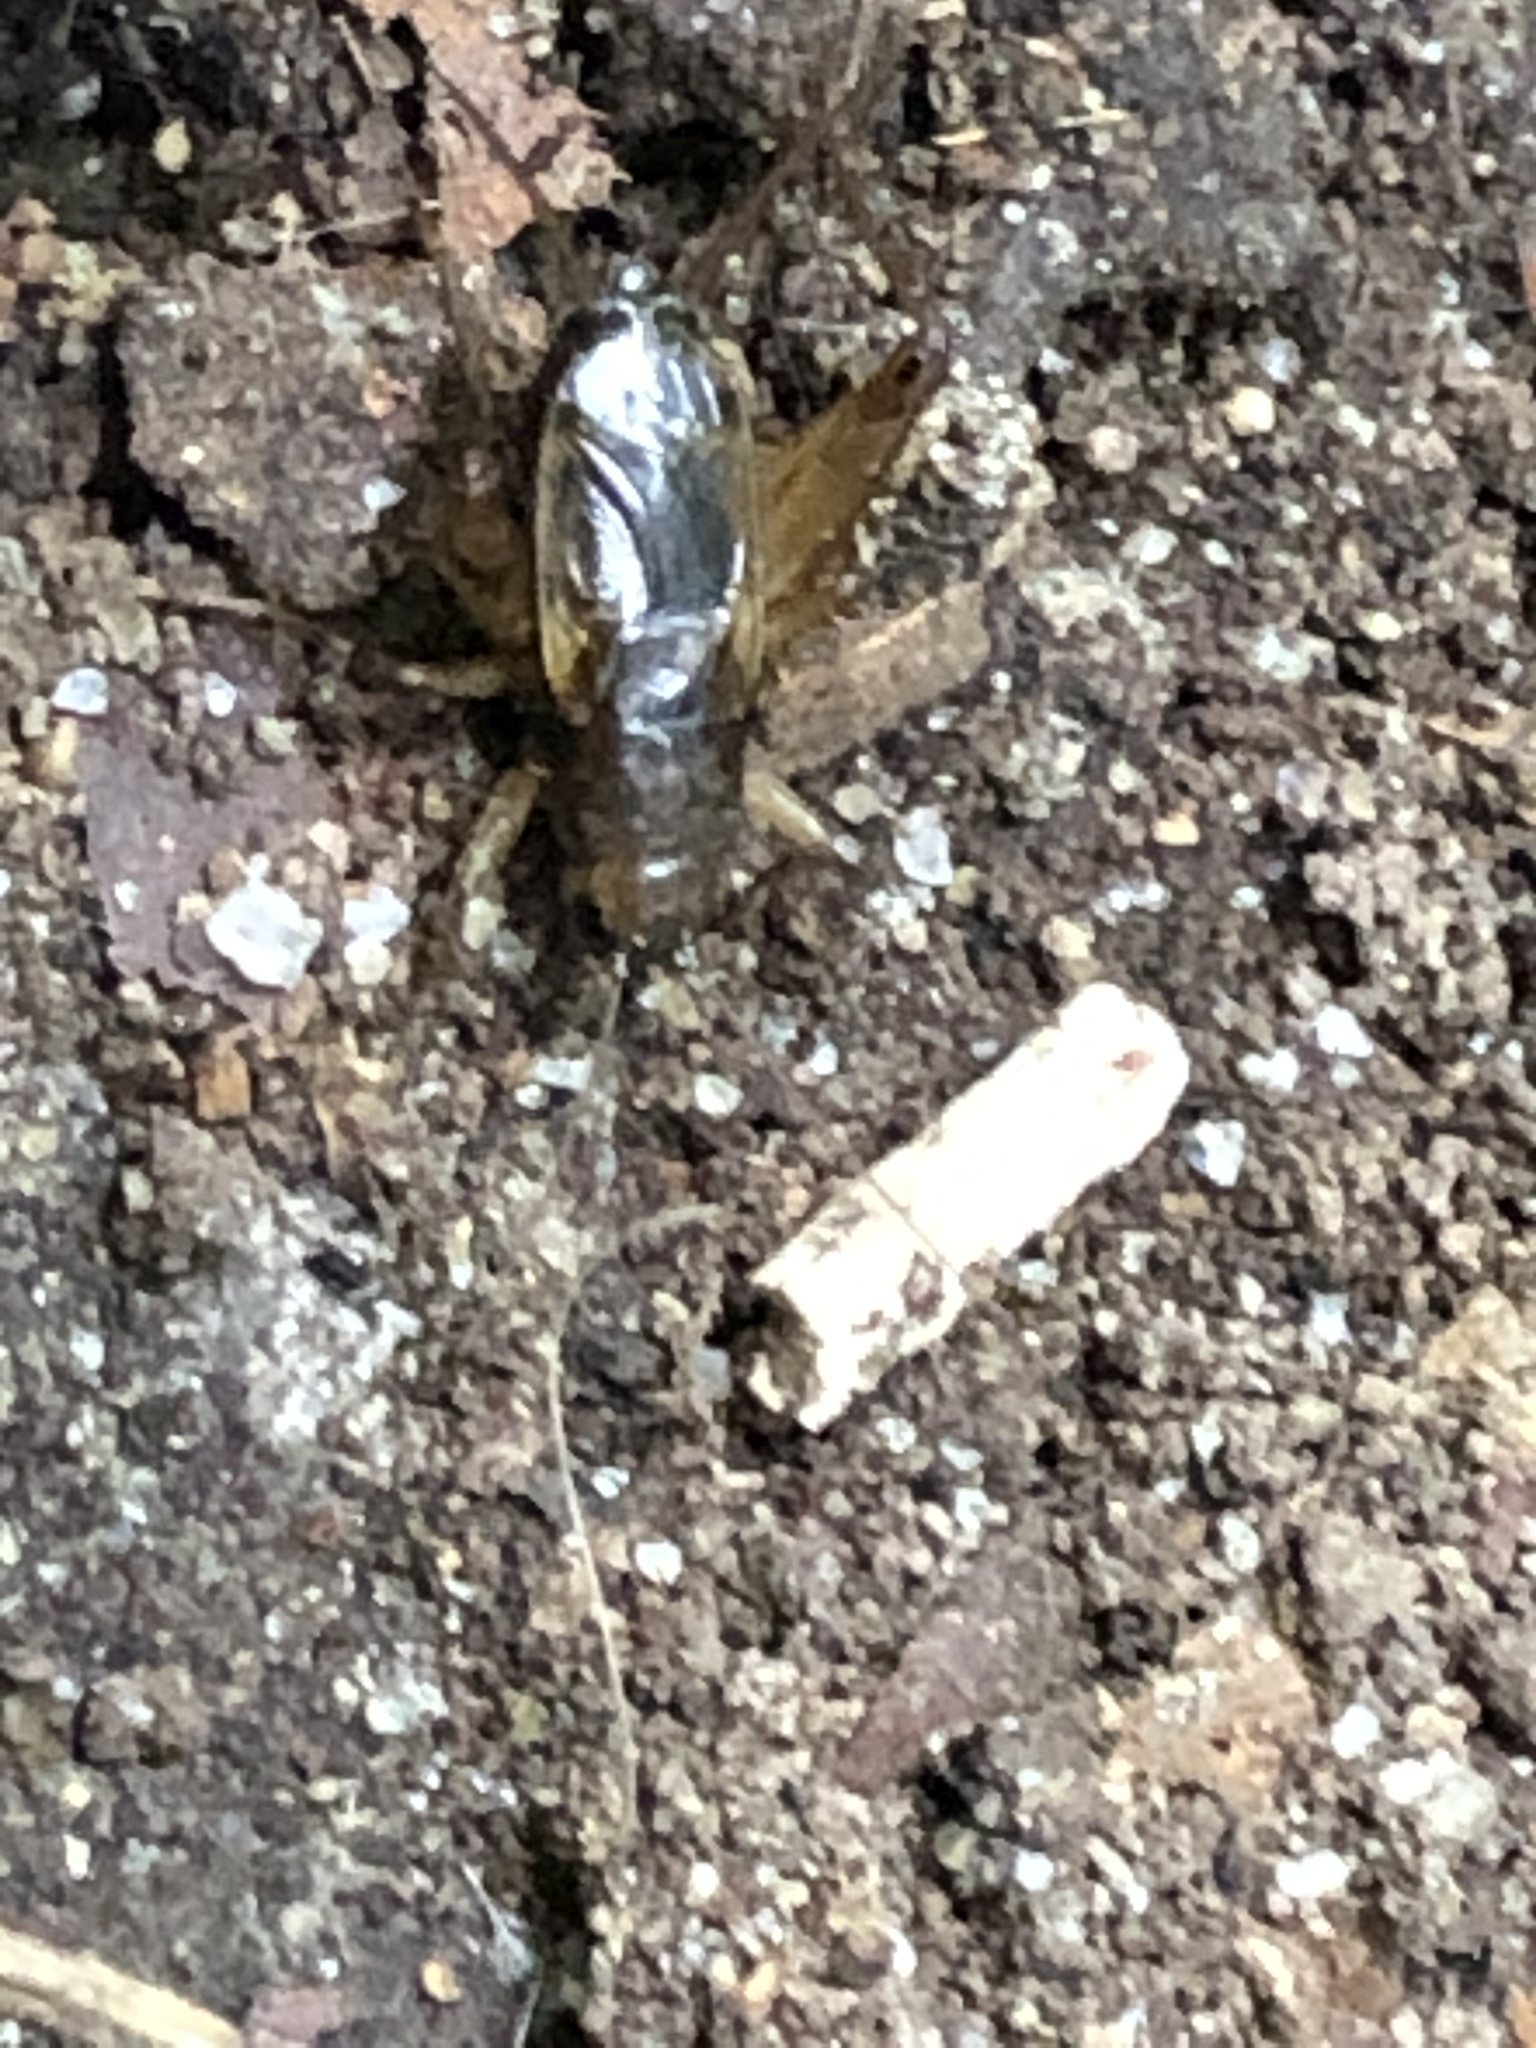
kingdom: Animalia
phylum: Arthropoda
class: Insecta
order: Orthoptera
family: Trigonidiidae
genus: Eunemobius
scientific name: Eunemobius carolinus
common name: Carolina ground cricket
